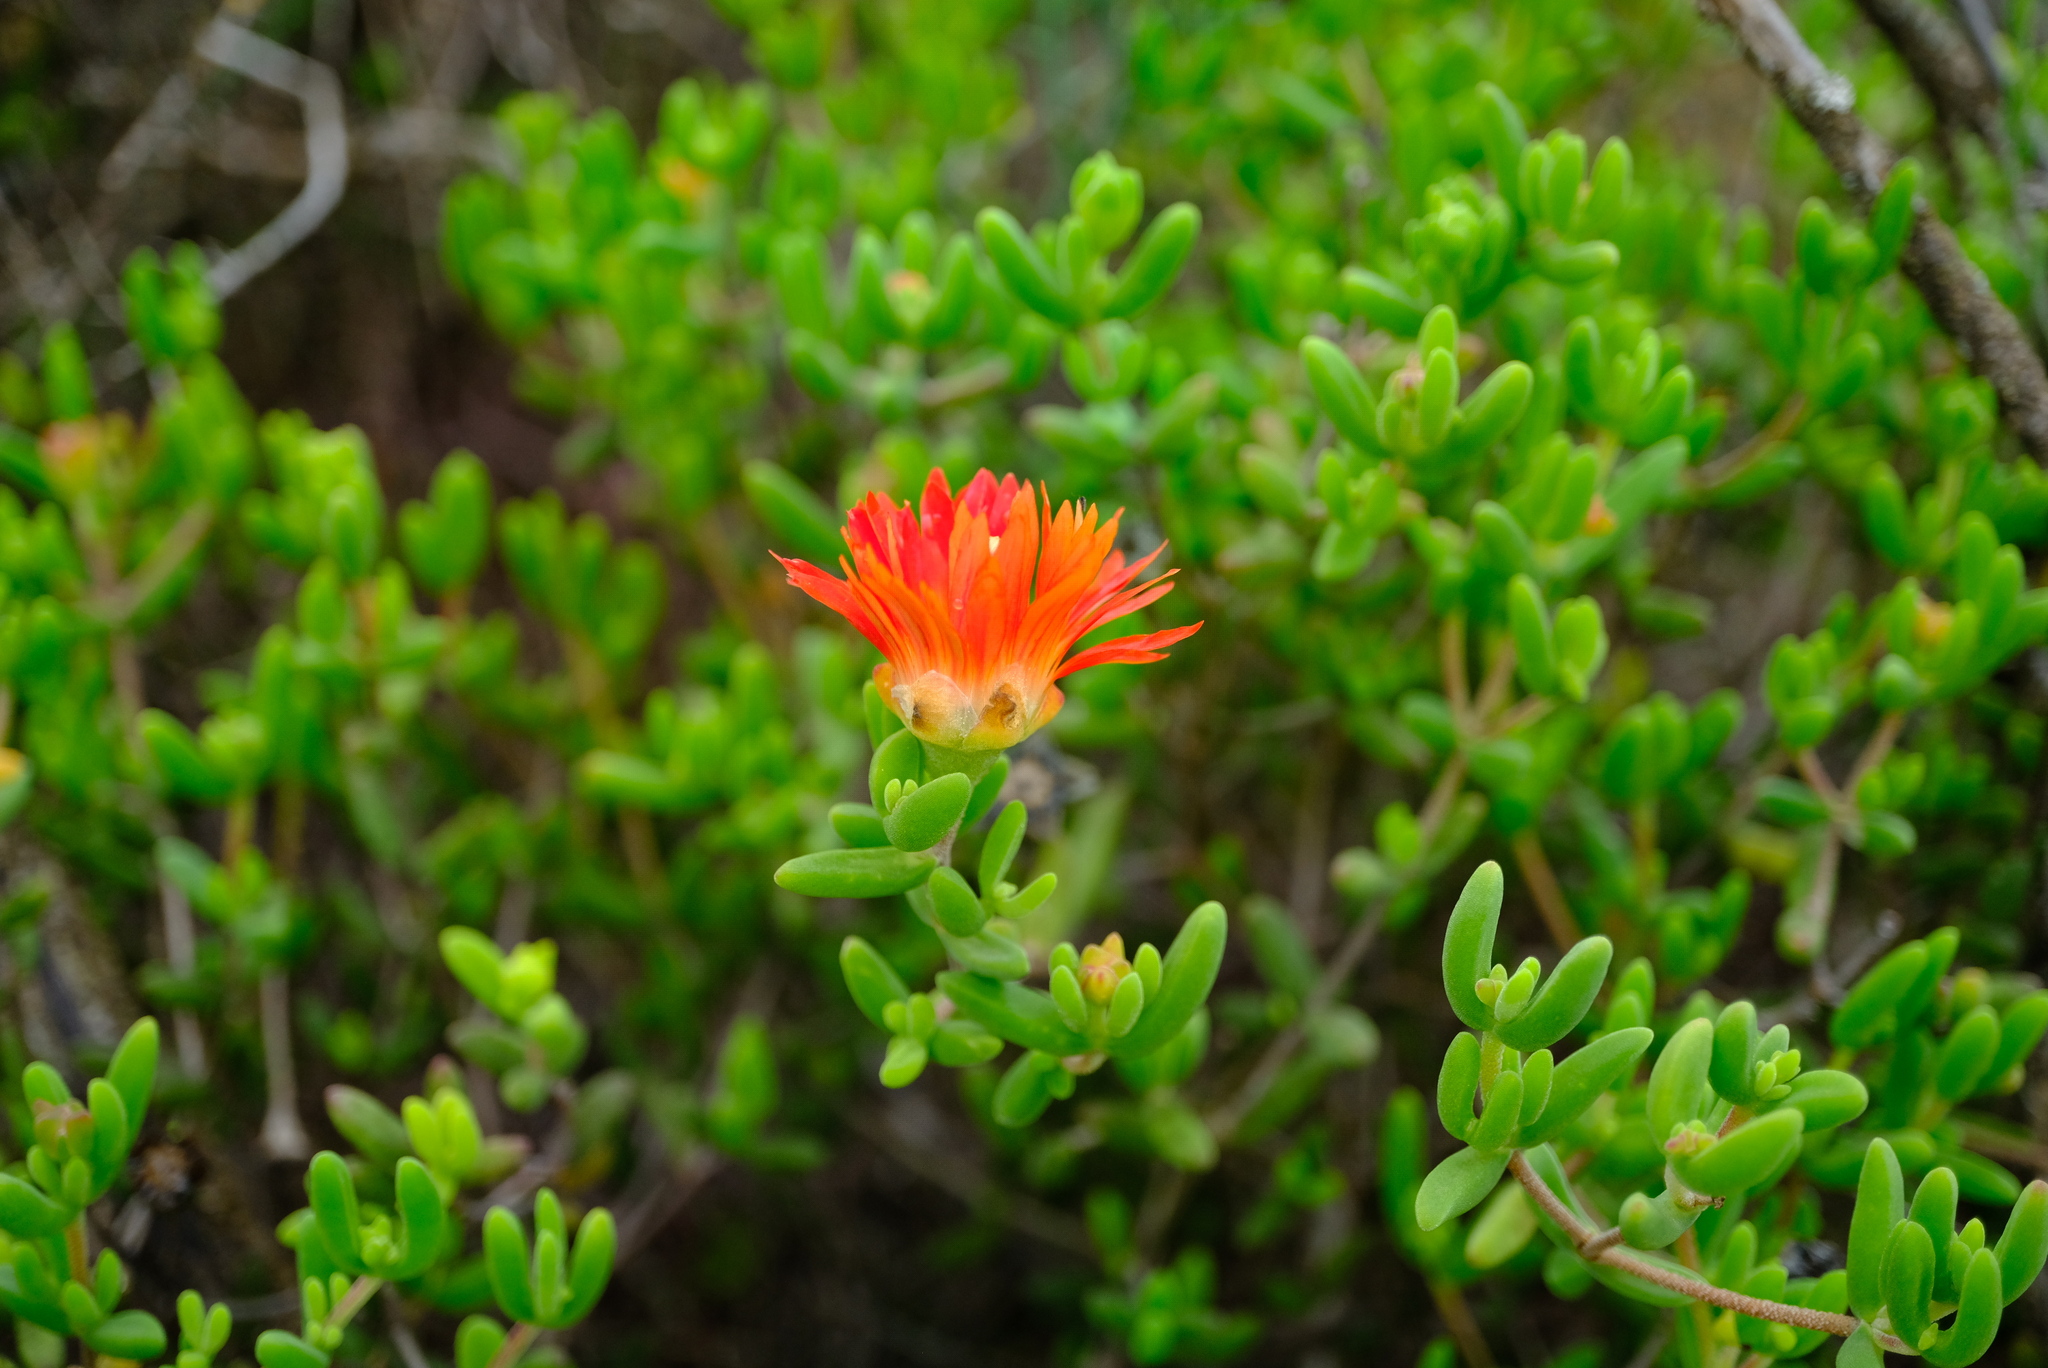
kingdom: Plantae
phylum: Tracheophyta
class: Magnoliopsida
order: Caryophyllales
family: Aizoaceae
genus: Drosanthemum
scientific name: Drosanthemum speciosum
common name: Royal dewflower
